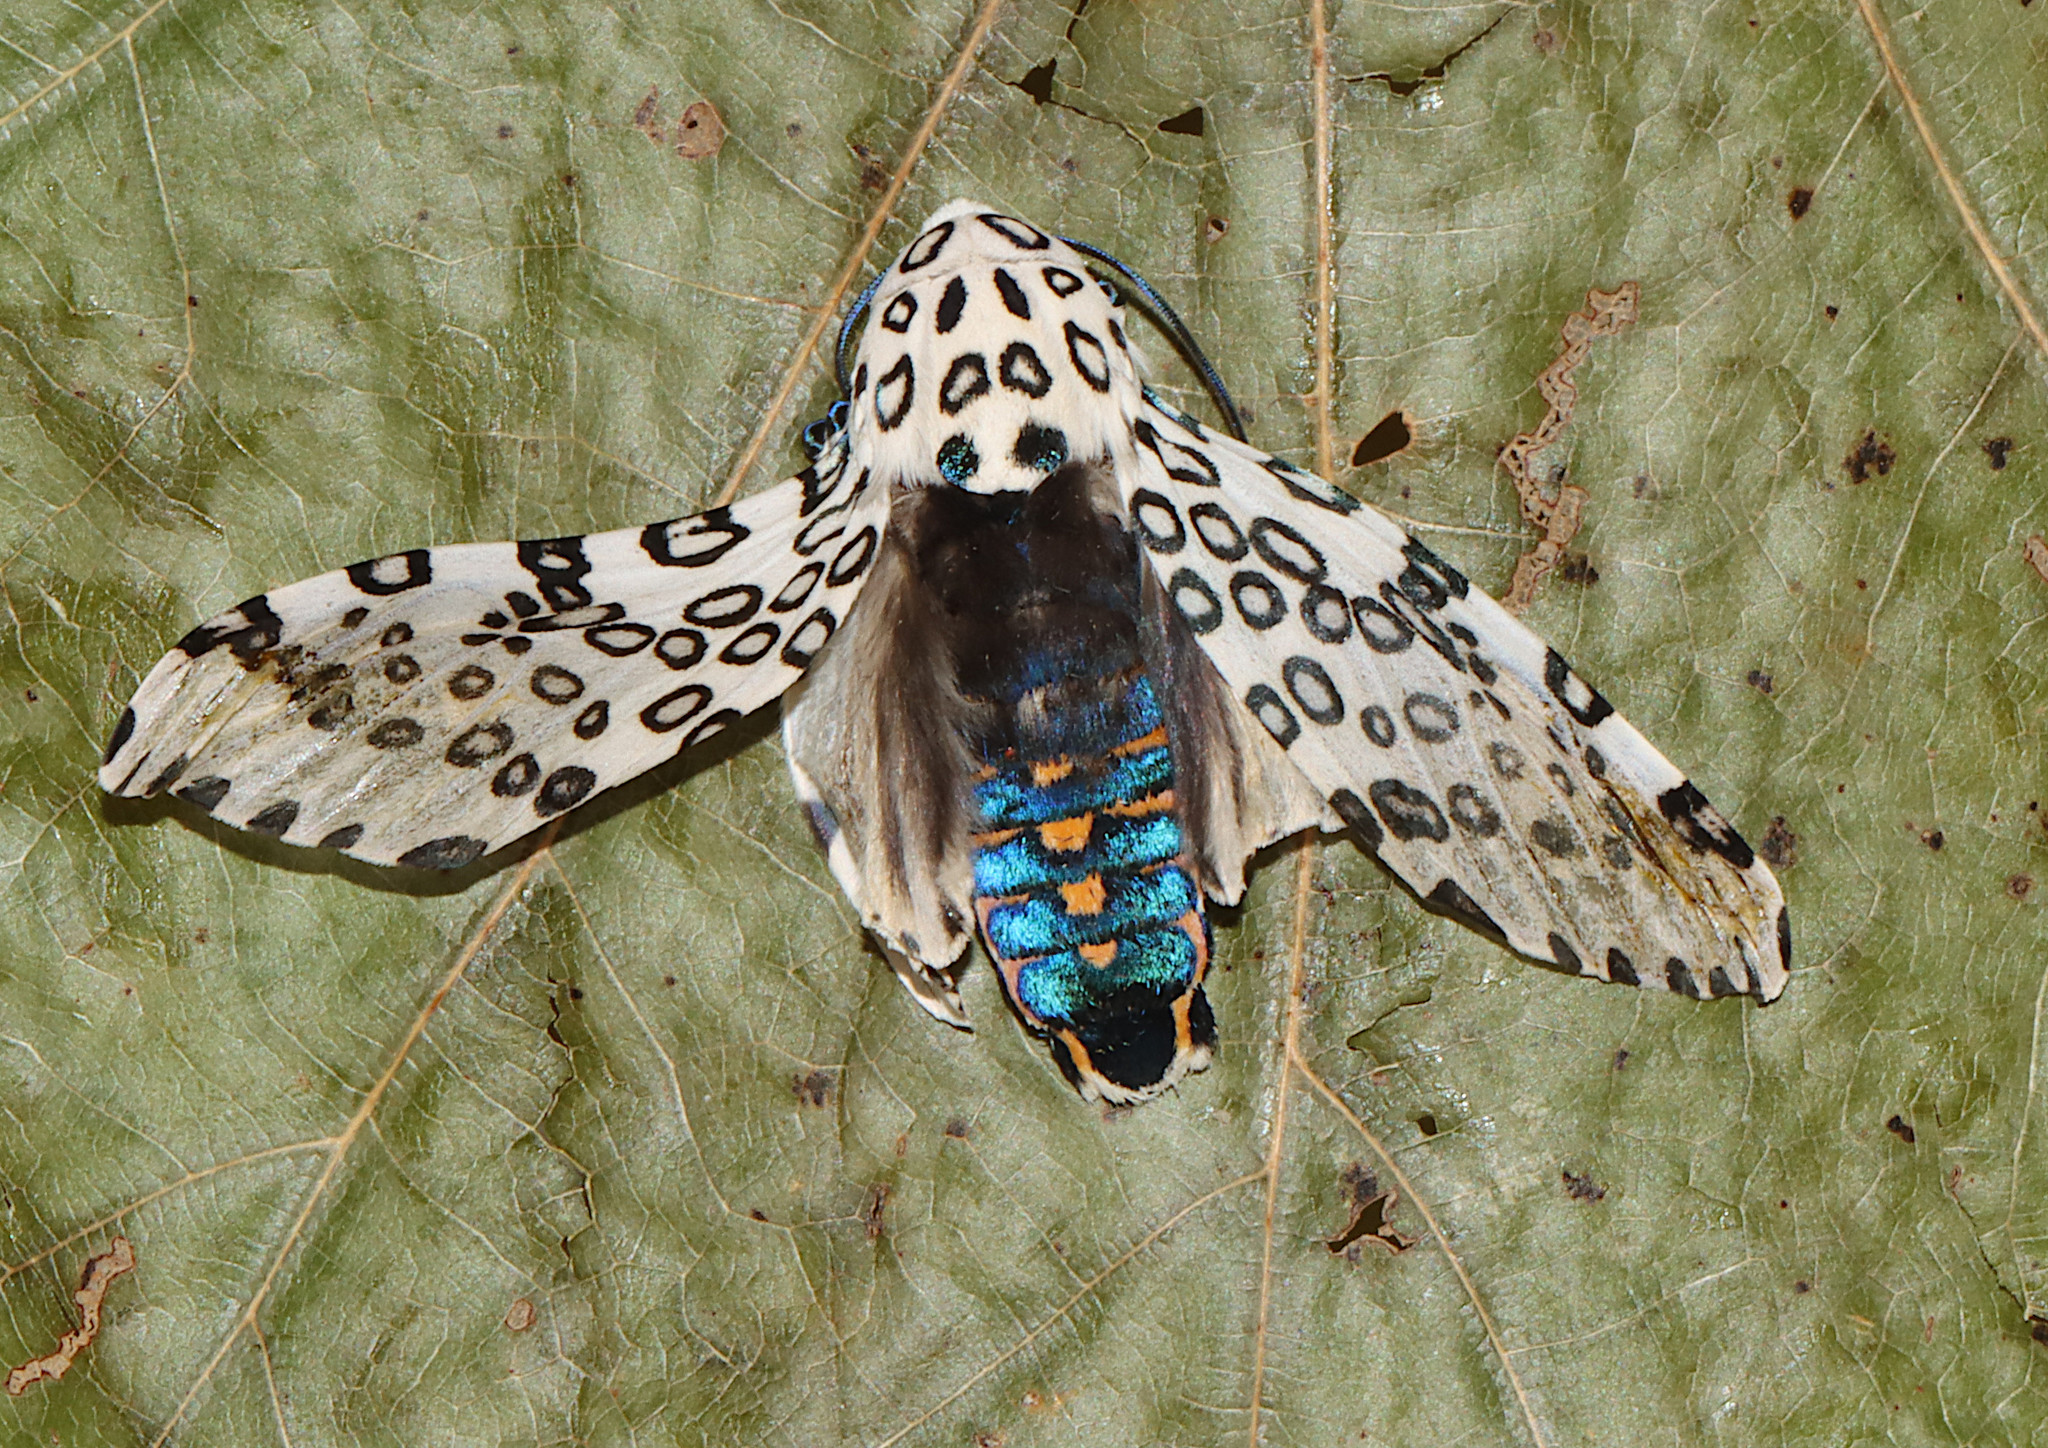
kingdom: Animalia
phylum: Arthropoda
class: Insecta
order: Lepidoptera
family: Erebidae
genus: Hypercompe
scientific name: Hypercompe scribonia
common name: Giant leopard moth
